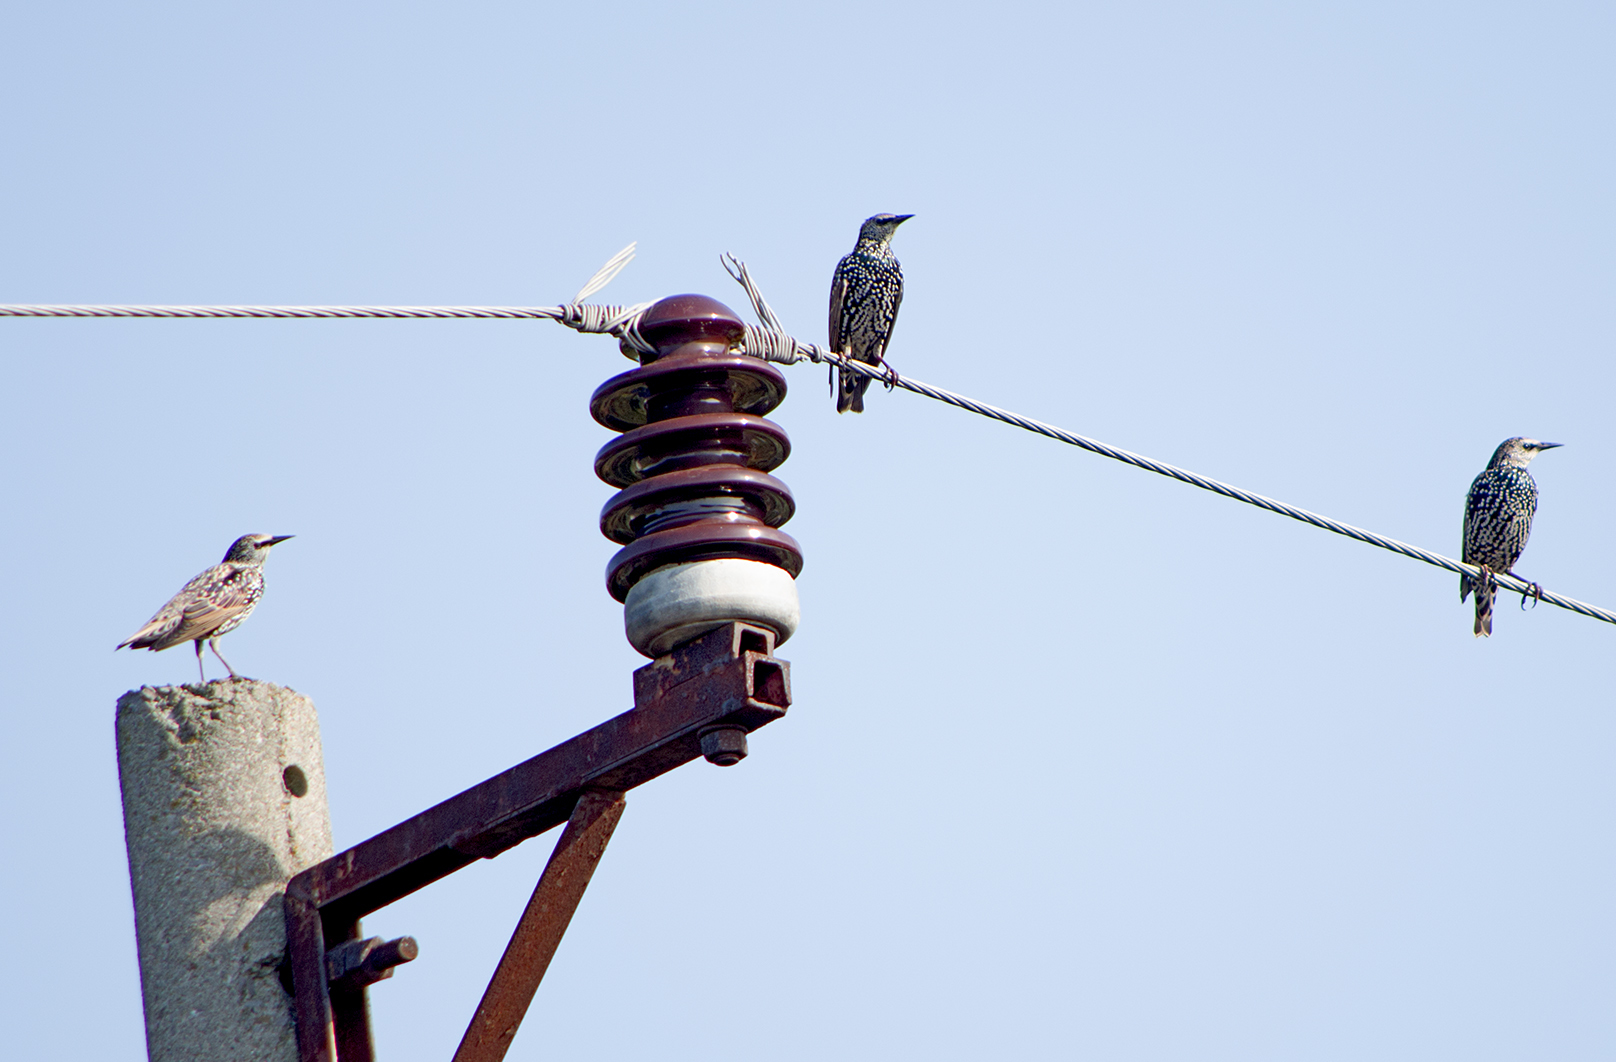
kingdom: Animalia
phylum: Chordata
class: Aves
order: Passeriformes
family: Sturnidae
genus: Sturnus
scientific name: Sturnus vulgaris
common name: Common starling
